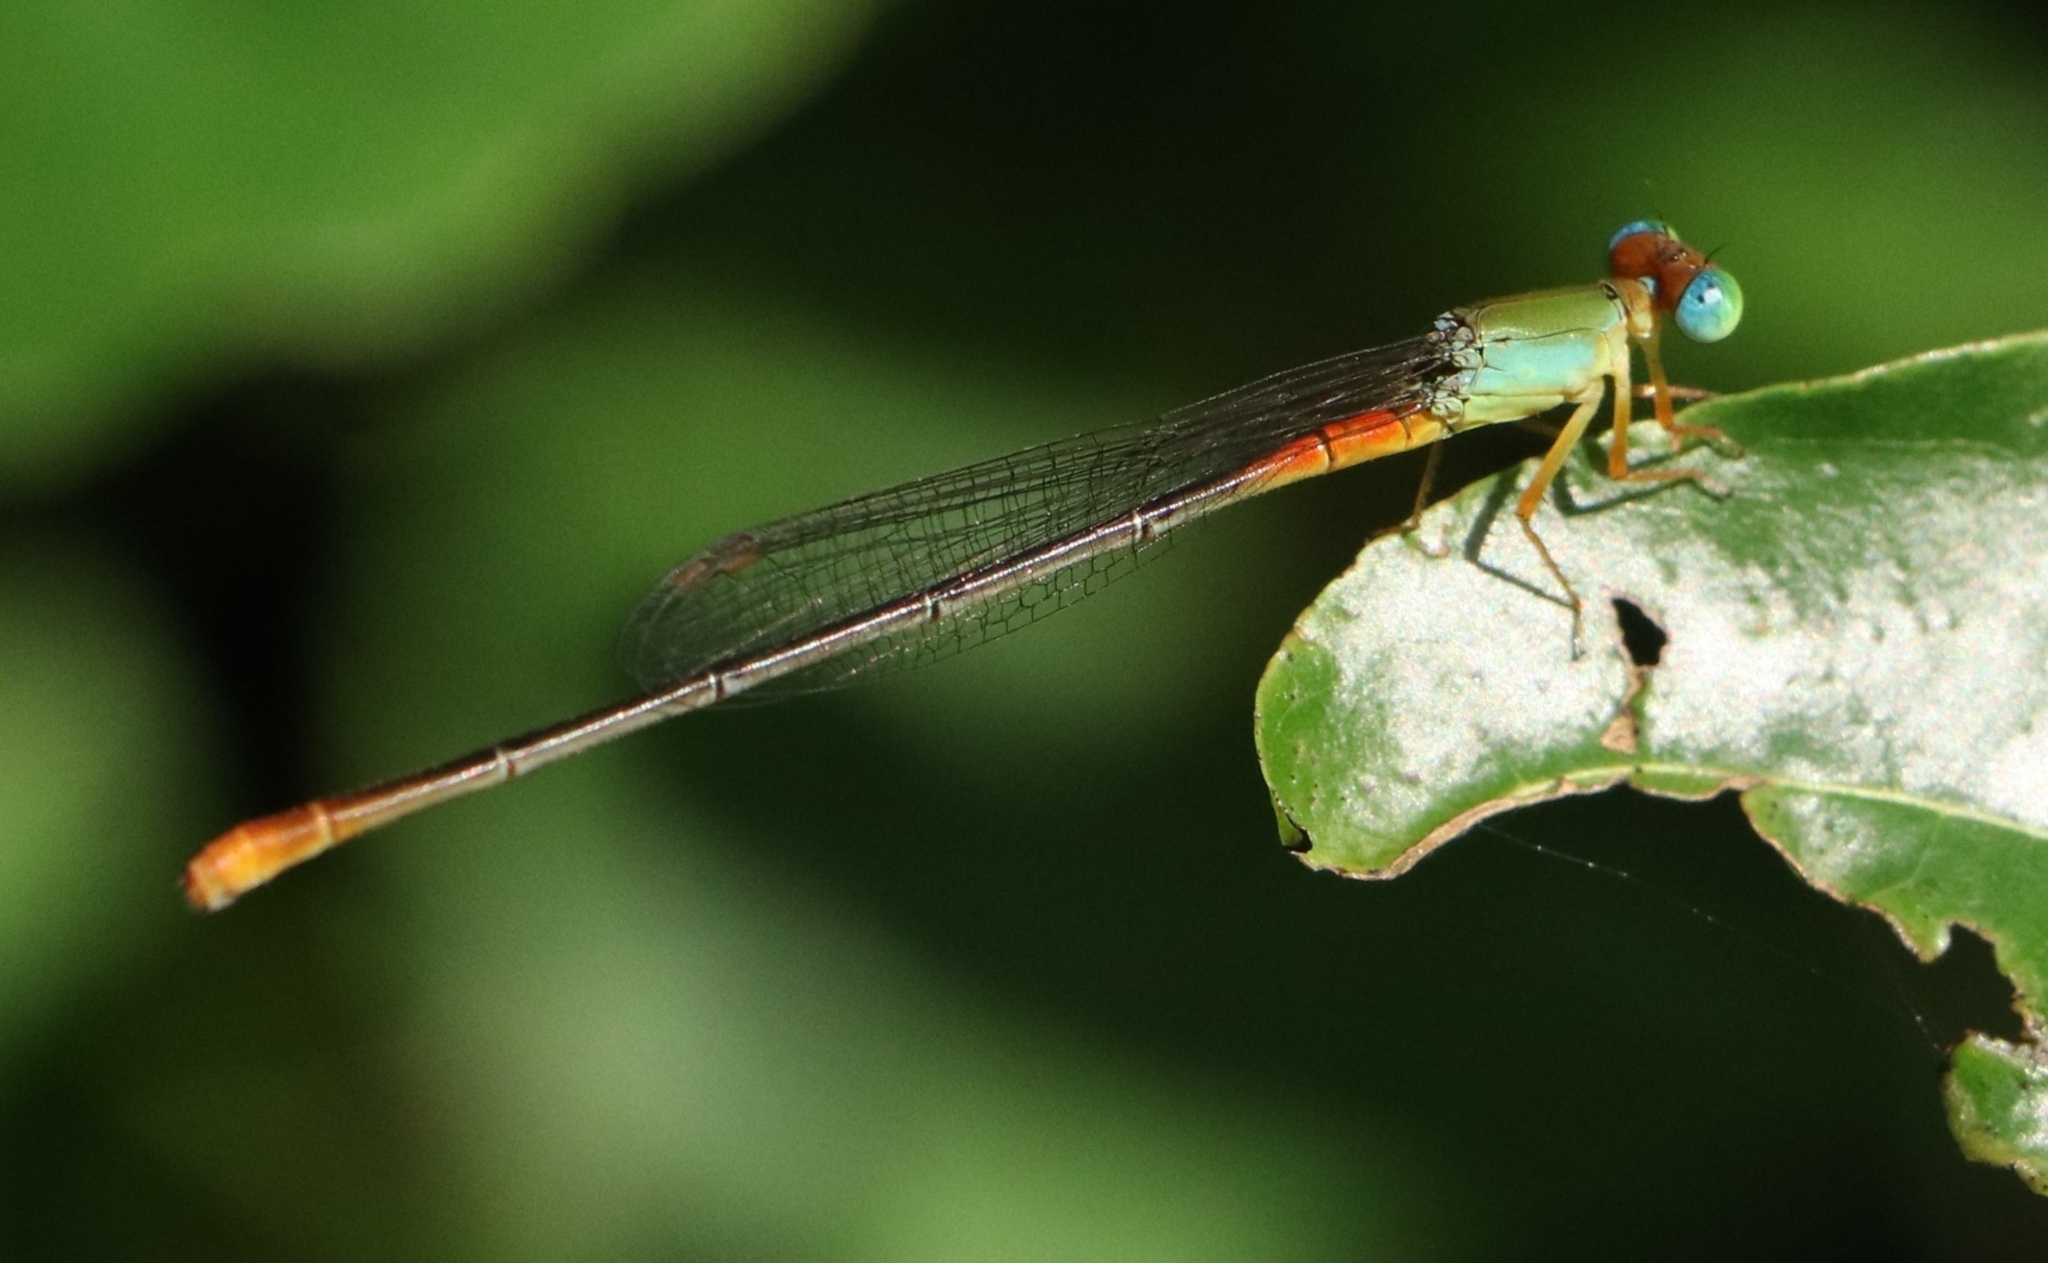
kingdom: Animalia
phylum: Arthropoda
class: Insecta
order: Odonata
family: Coenagrionidae
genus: Ceriagrion
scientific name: Ceriagrion cerinorubellum
